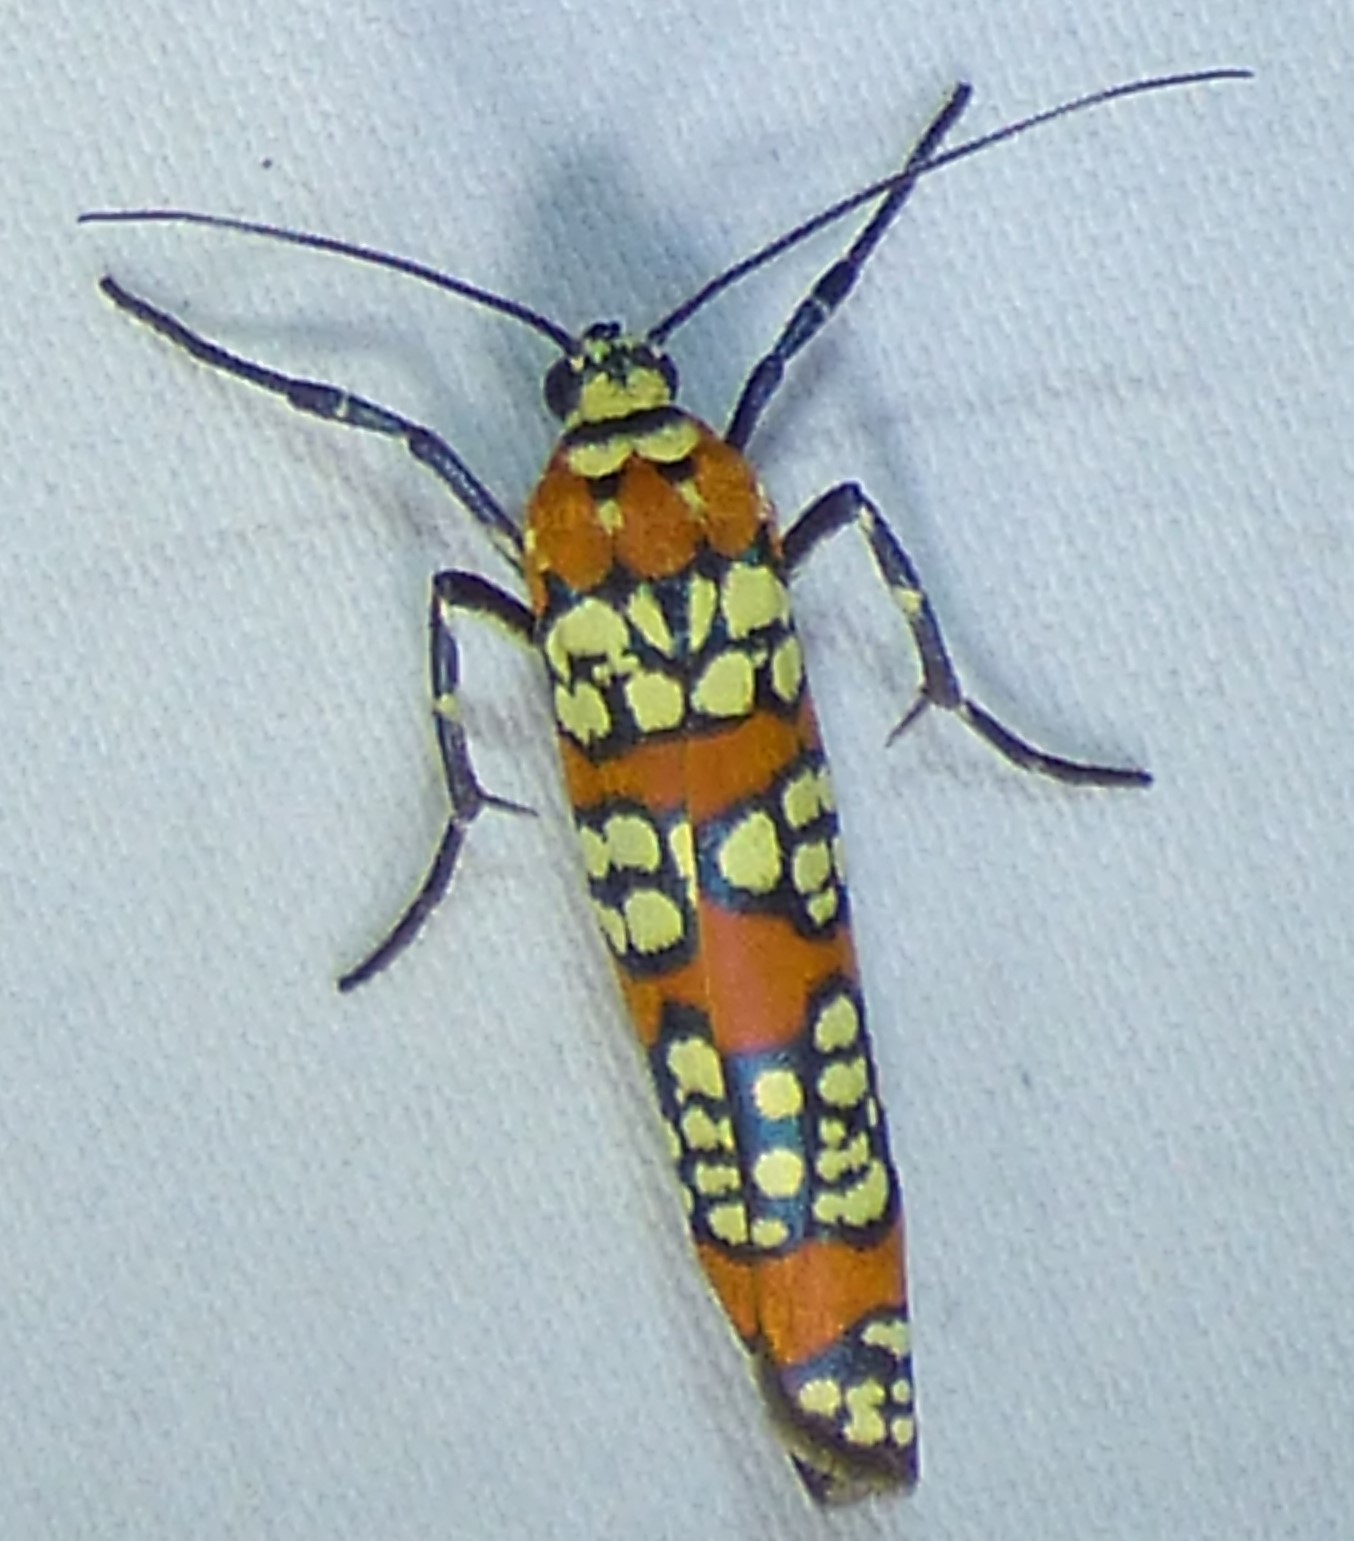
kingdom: Animalia
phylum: Arthropoda
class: Insecta
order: Lepidoptera
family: Attevidae
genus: Atteva
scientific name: Atteva punctella
